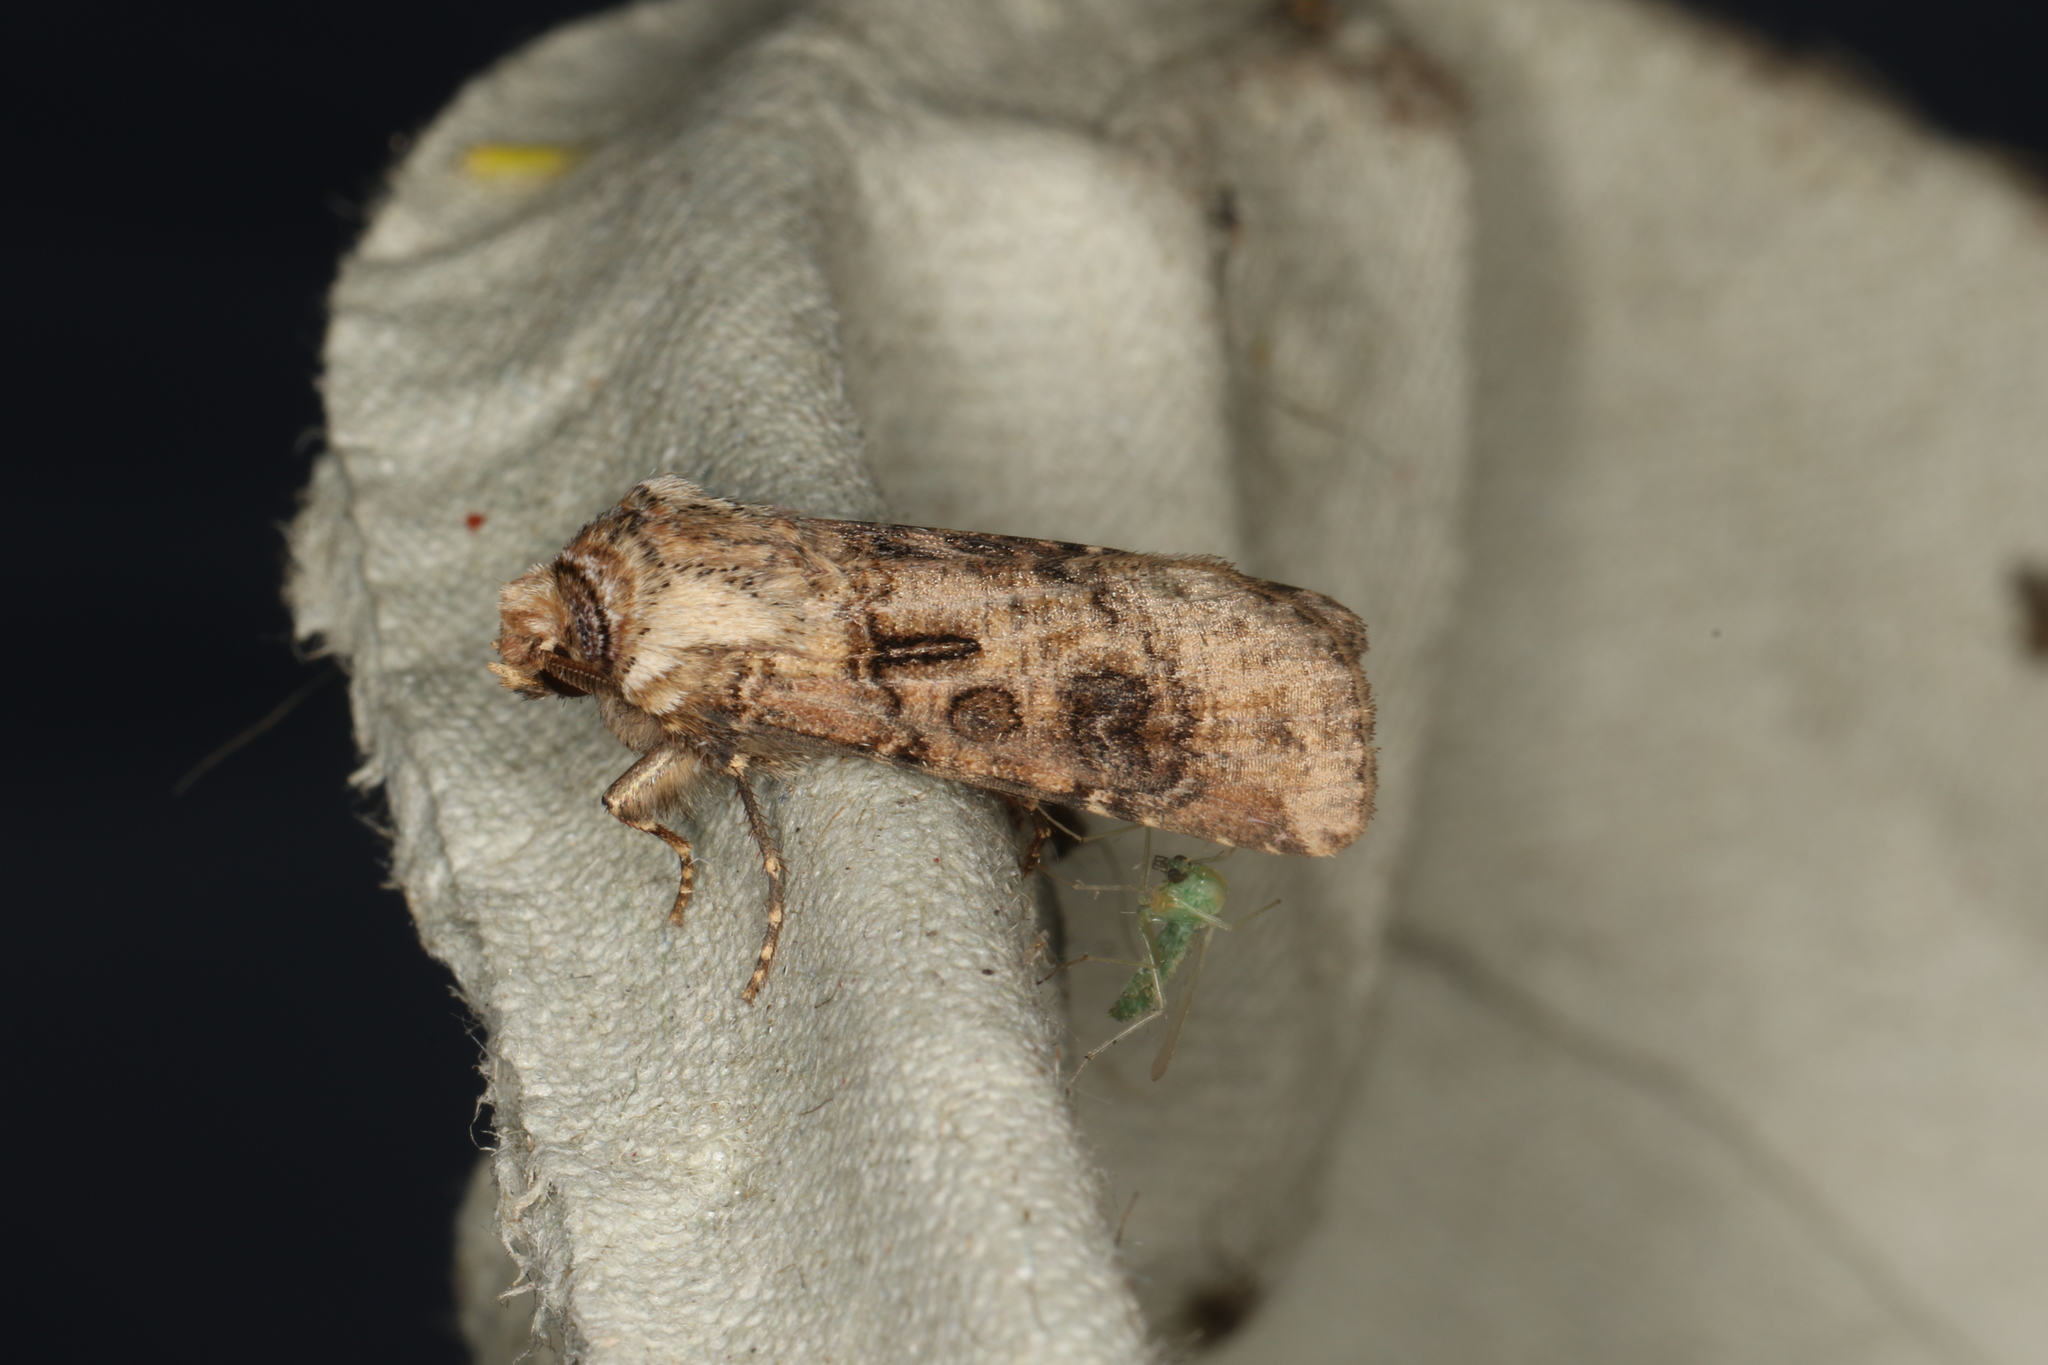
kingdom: Animalia
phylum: Arthropoda
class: Insecta
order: Lepidoptera
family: Noctuidae
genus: Agrotis
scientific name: Agrotis clavis
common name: Heart and club
